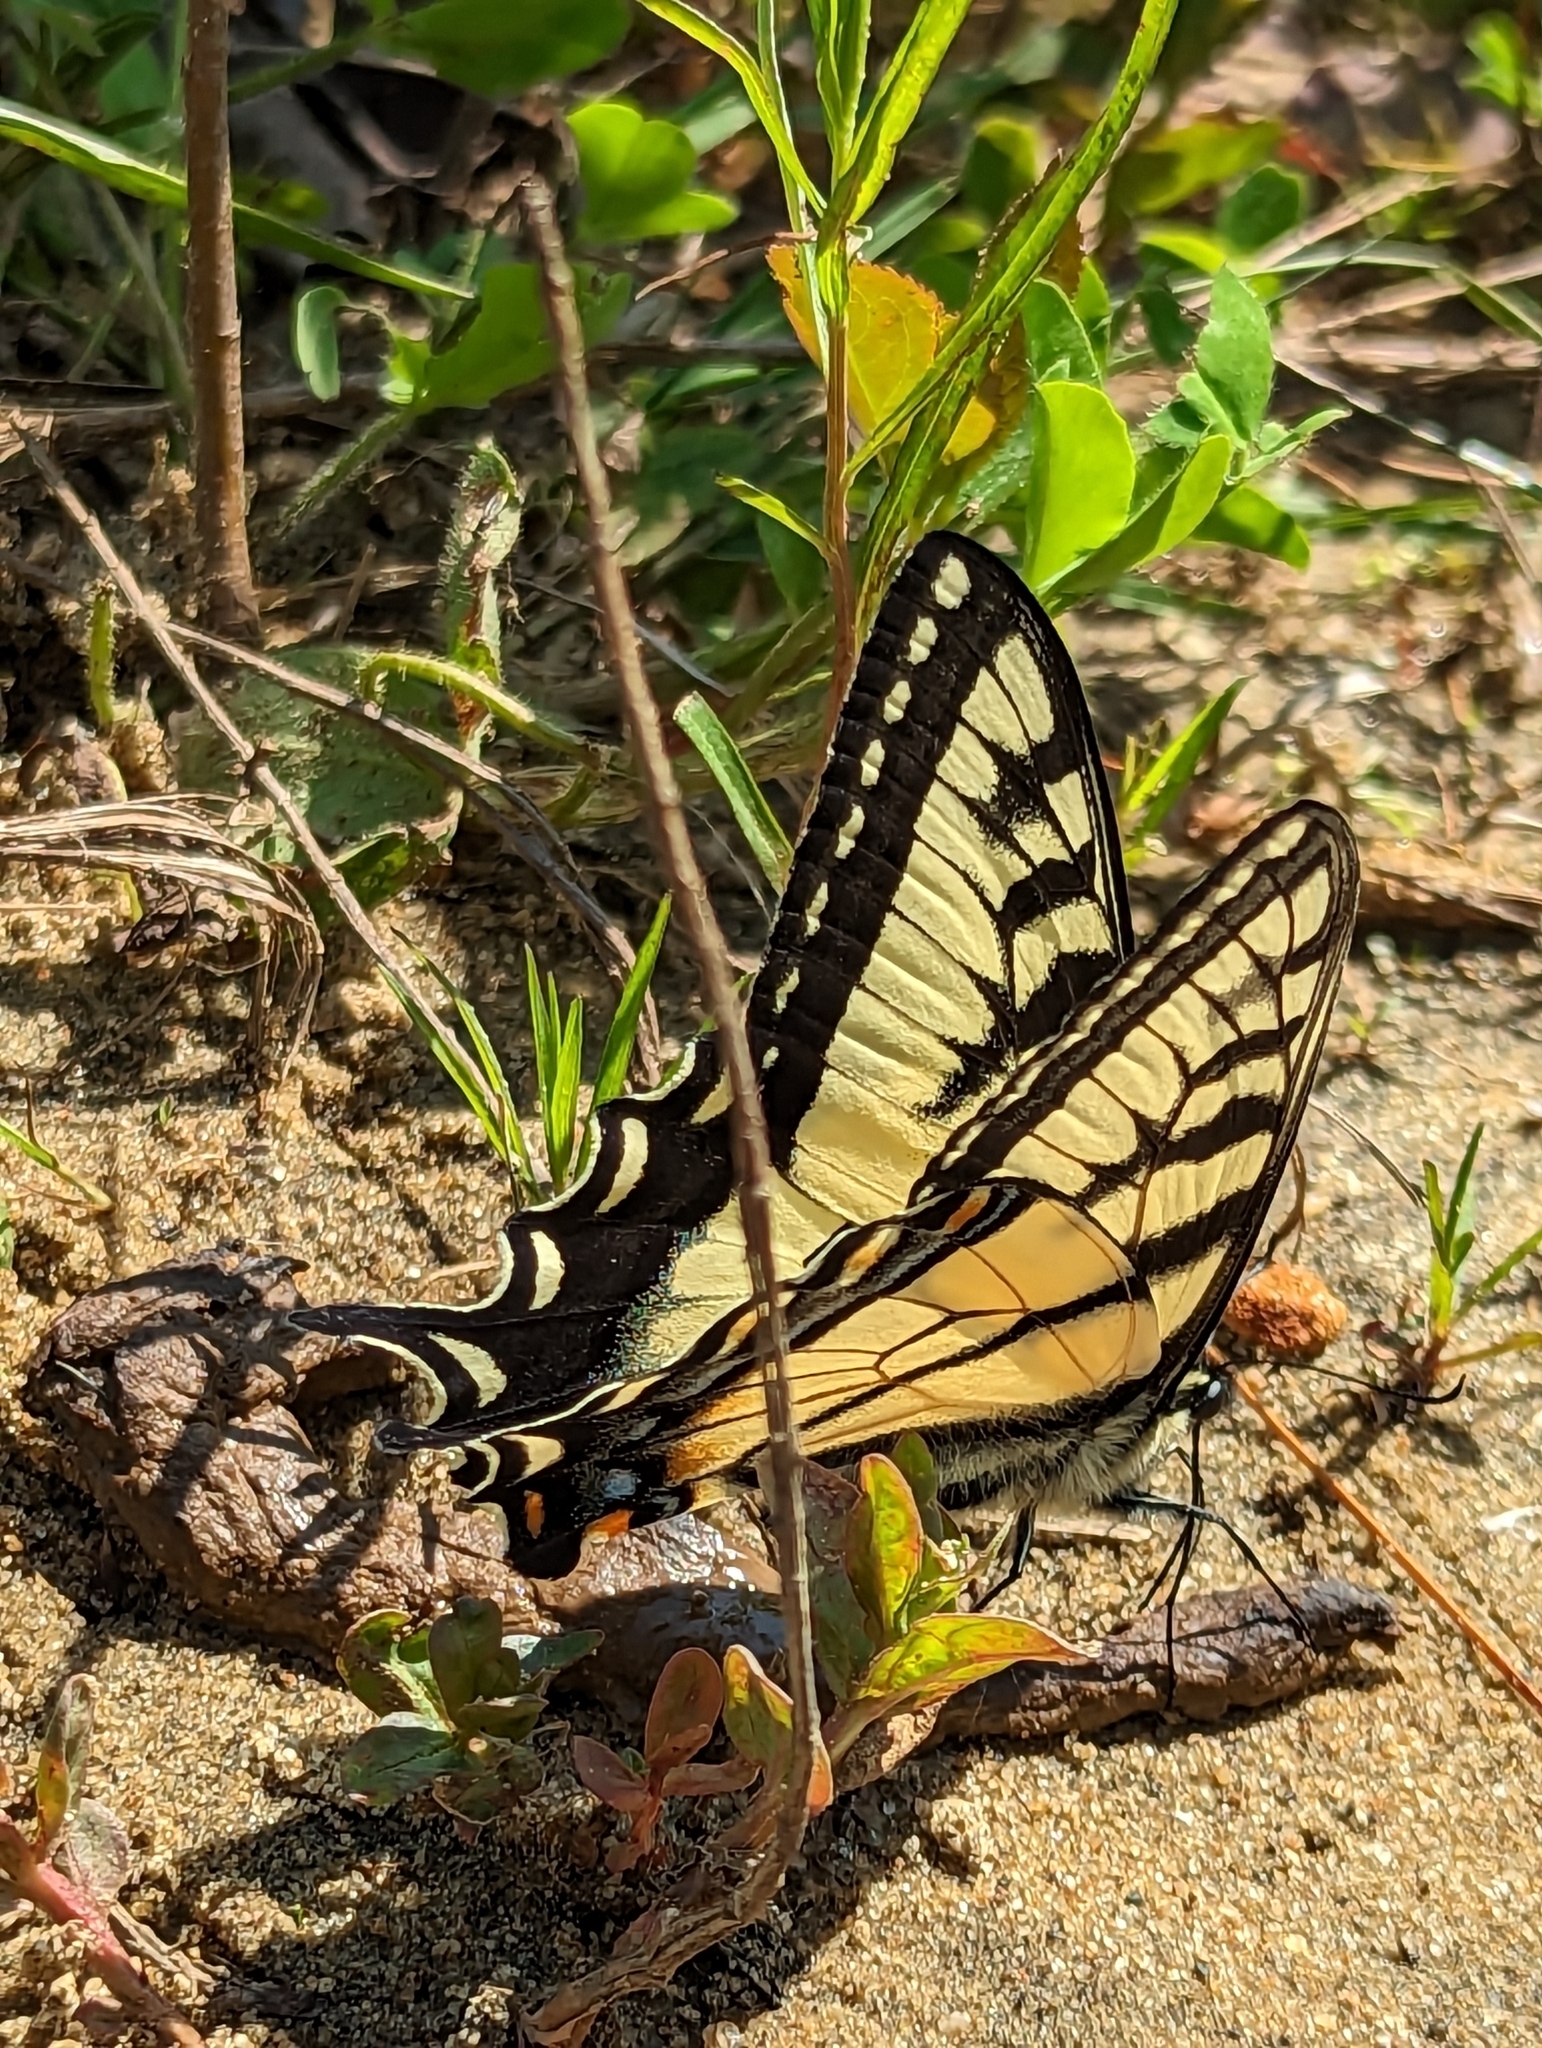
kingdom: Animalia
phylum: Arthropoda
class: Insecta
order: Lepidoptera
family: Papilionidae
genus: Papilio
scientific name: Papilio canadensis
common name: Canadian tiger swallowtail
